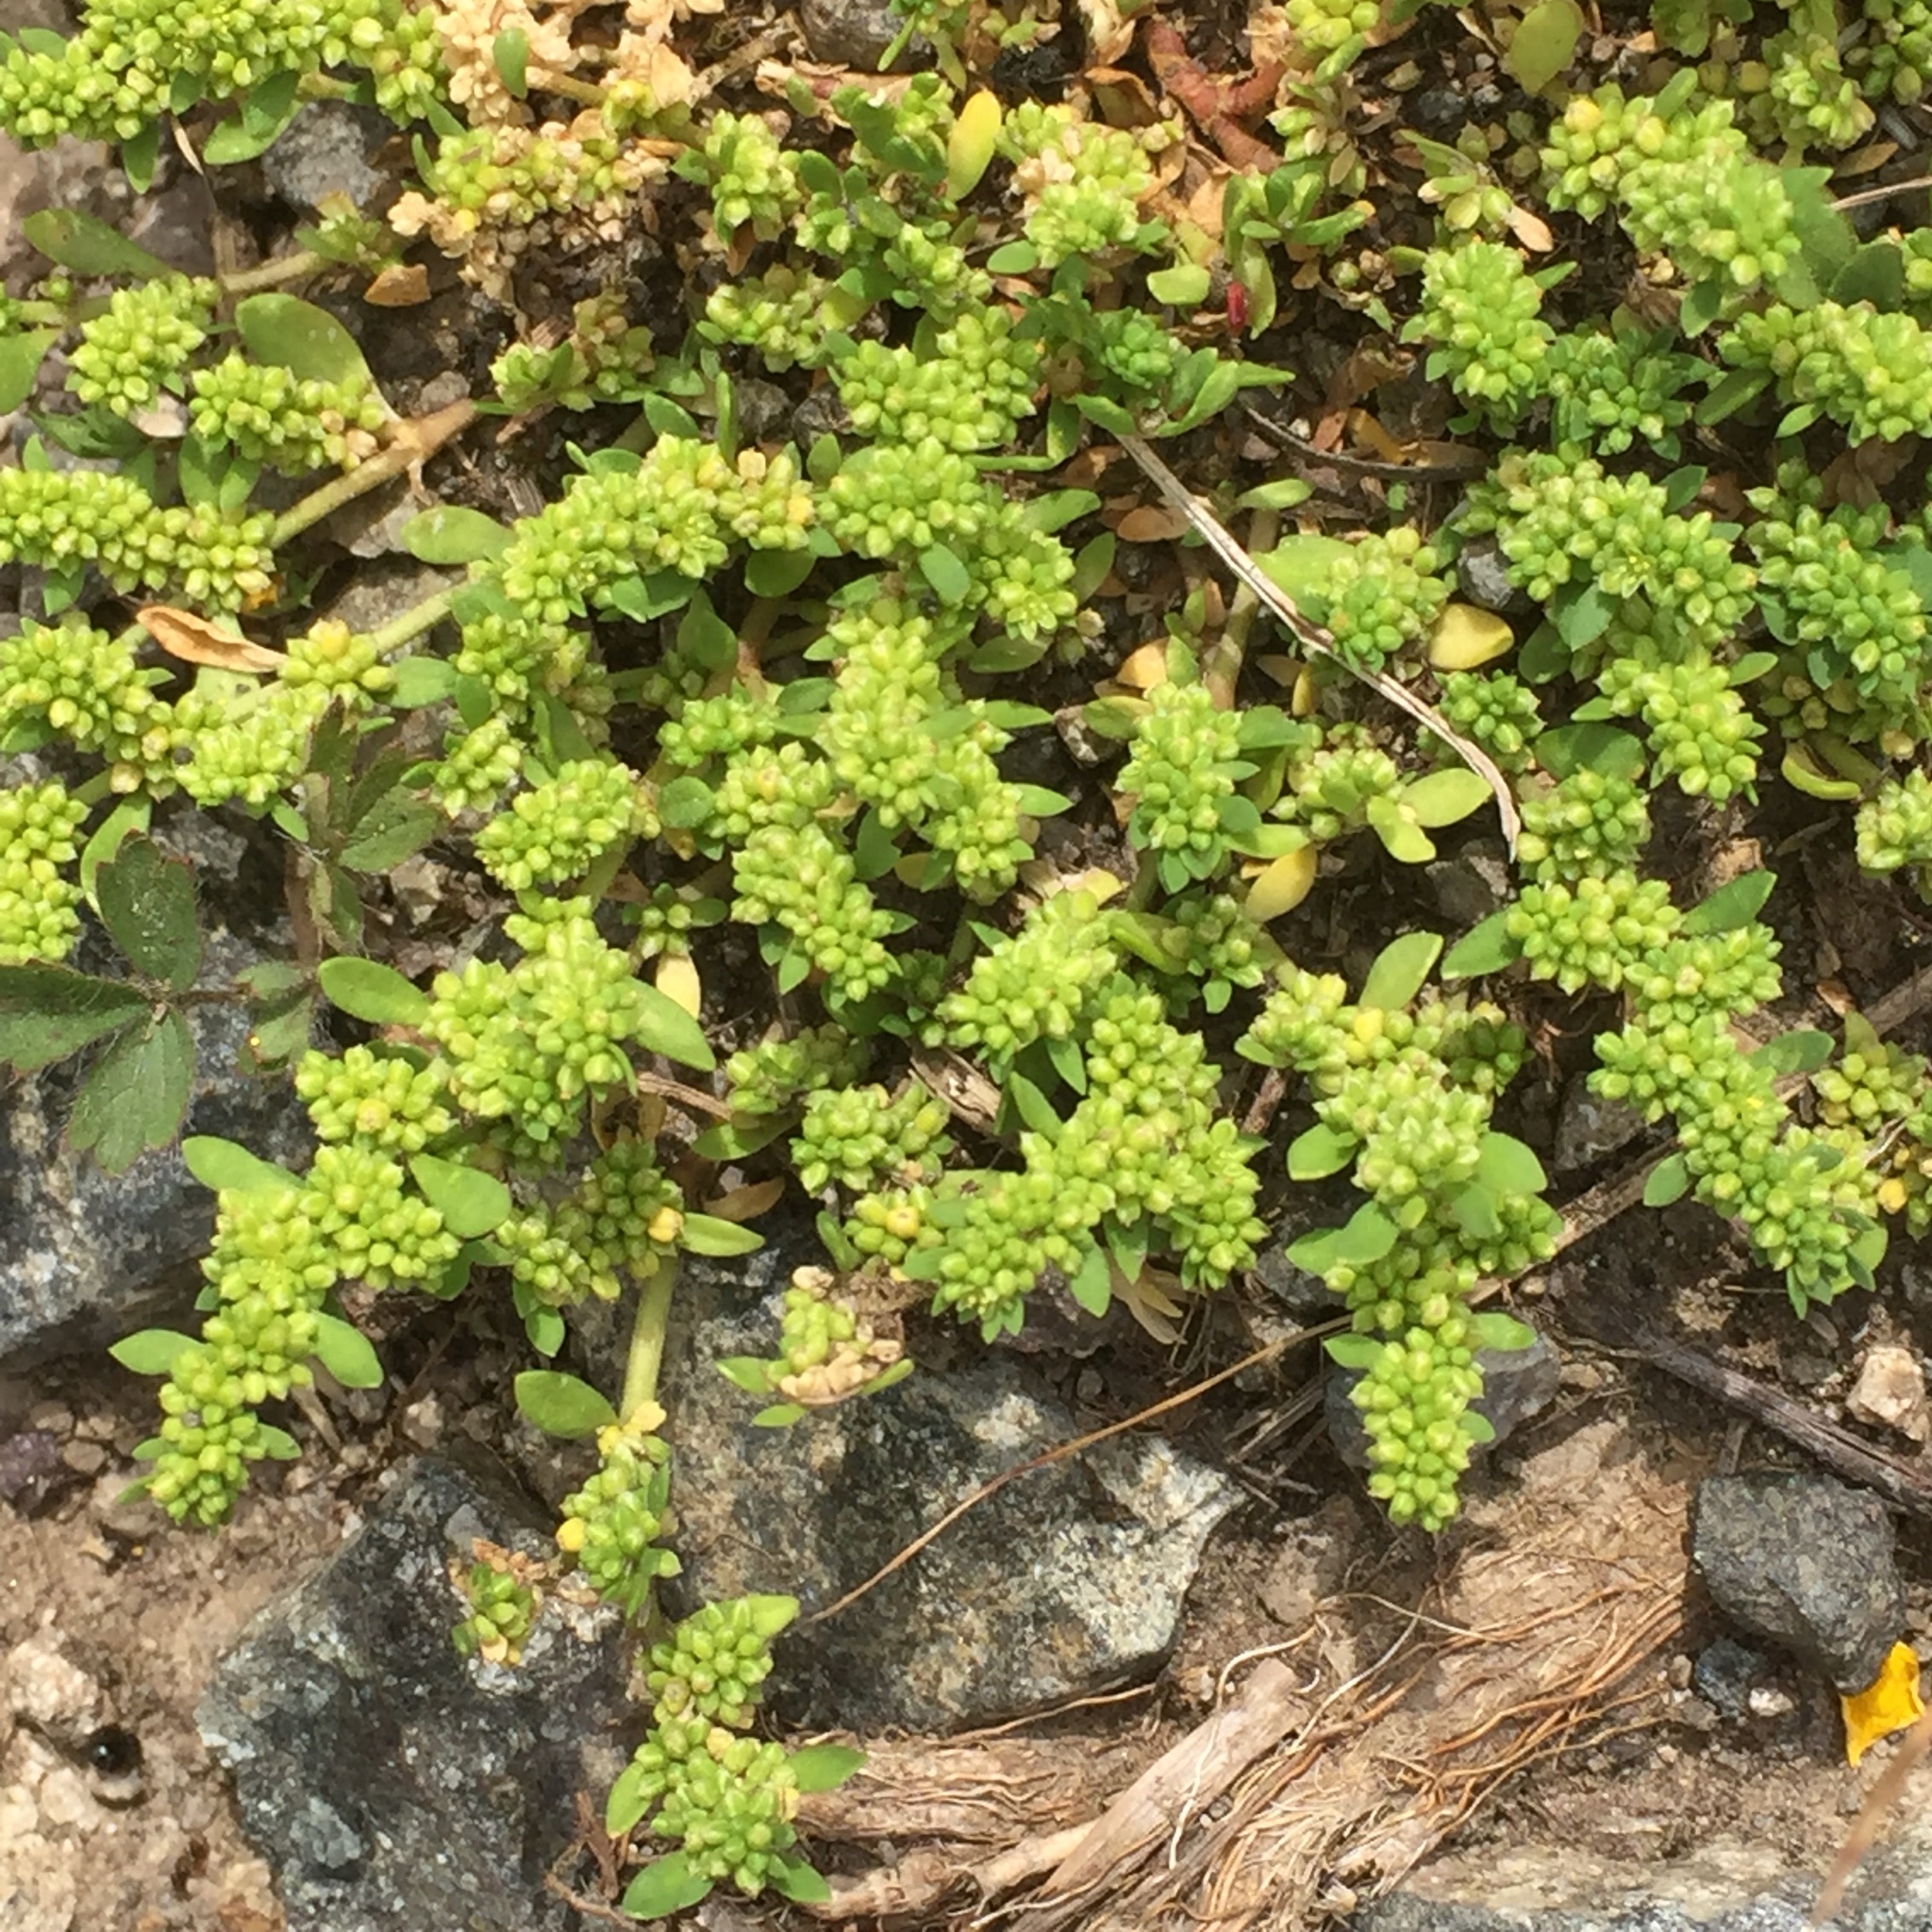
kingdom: Plantae
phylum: Tracheophyta
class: Magnoliopsida
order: Caryophyllales
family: Caryophyllaceae
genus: Herniaria
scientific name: Herniaria glabra
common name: Smooth rupturewort
